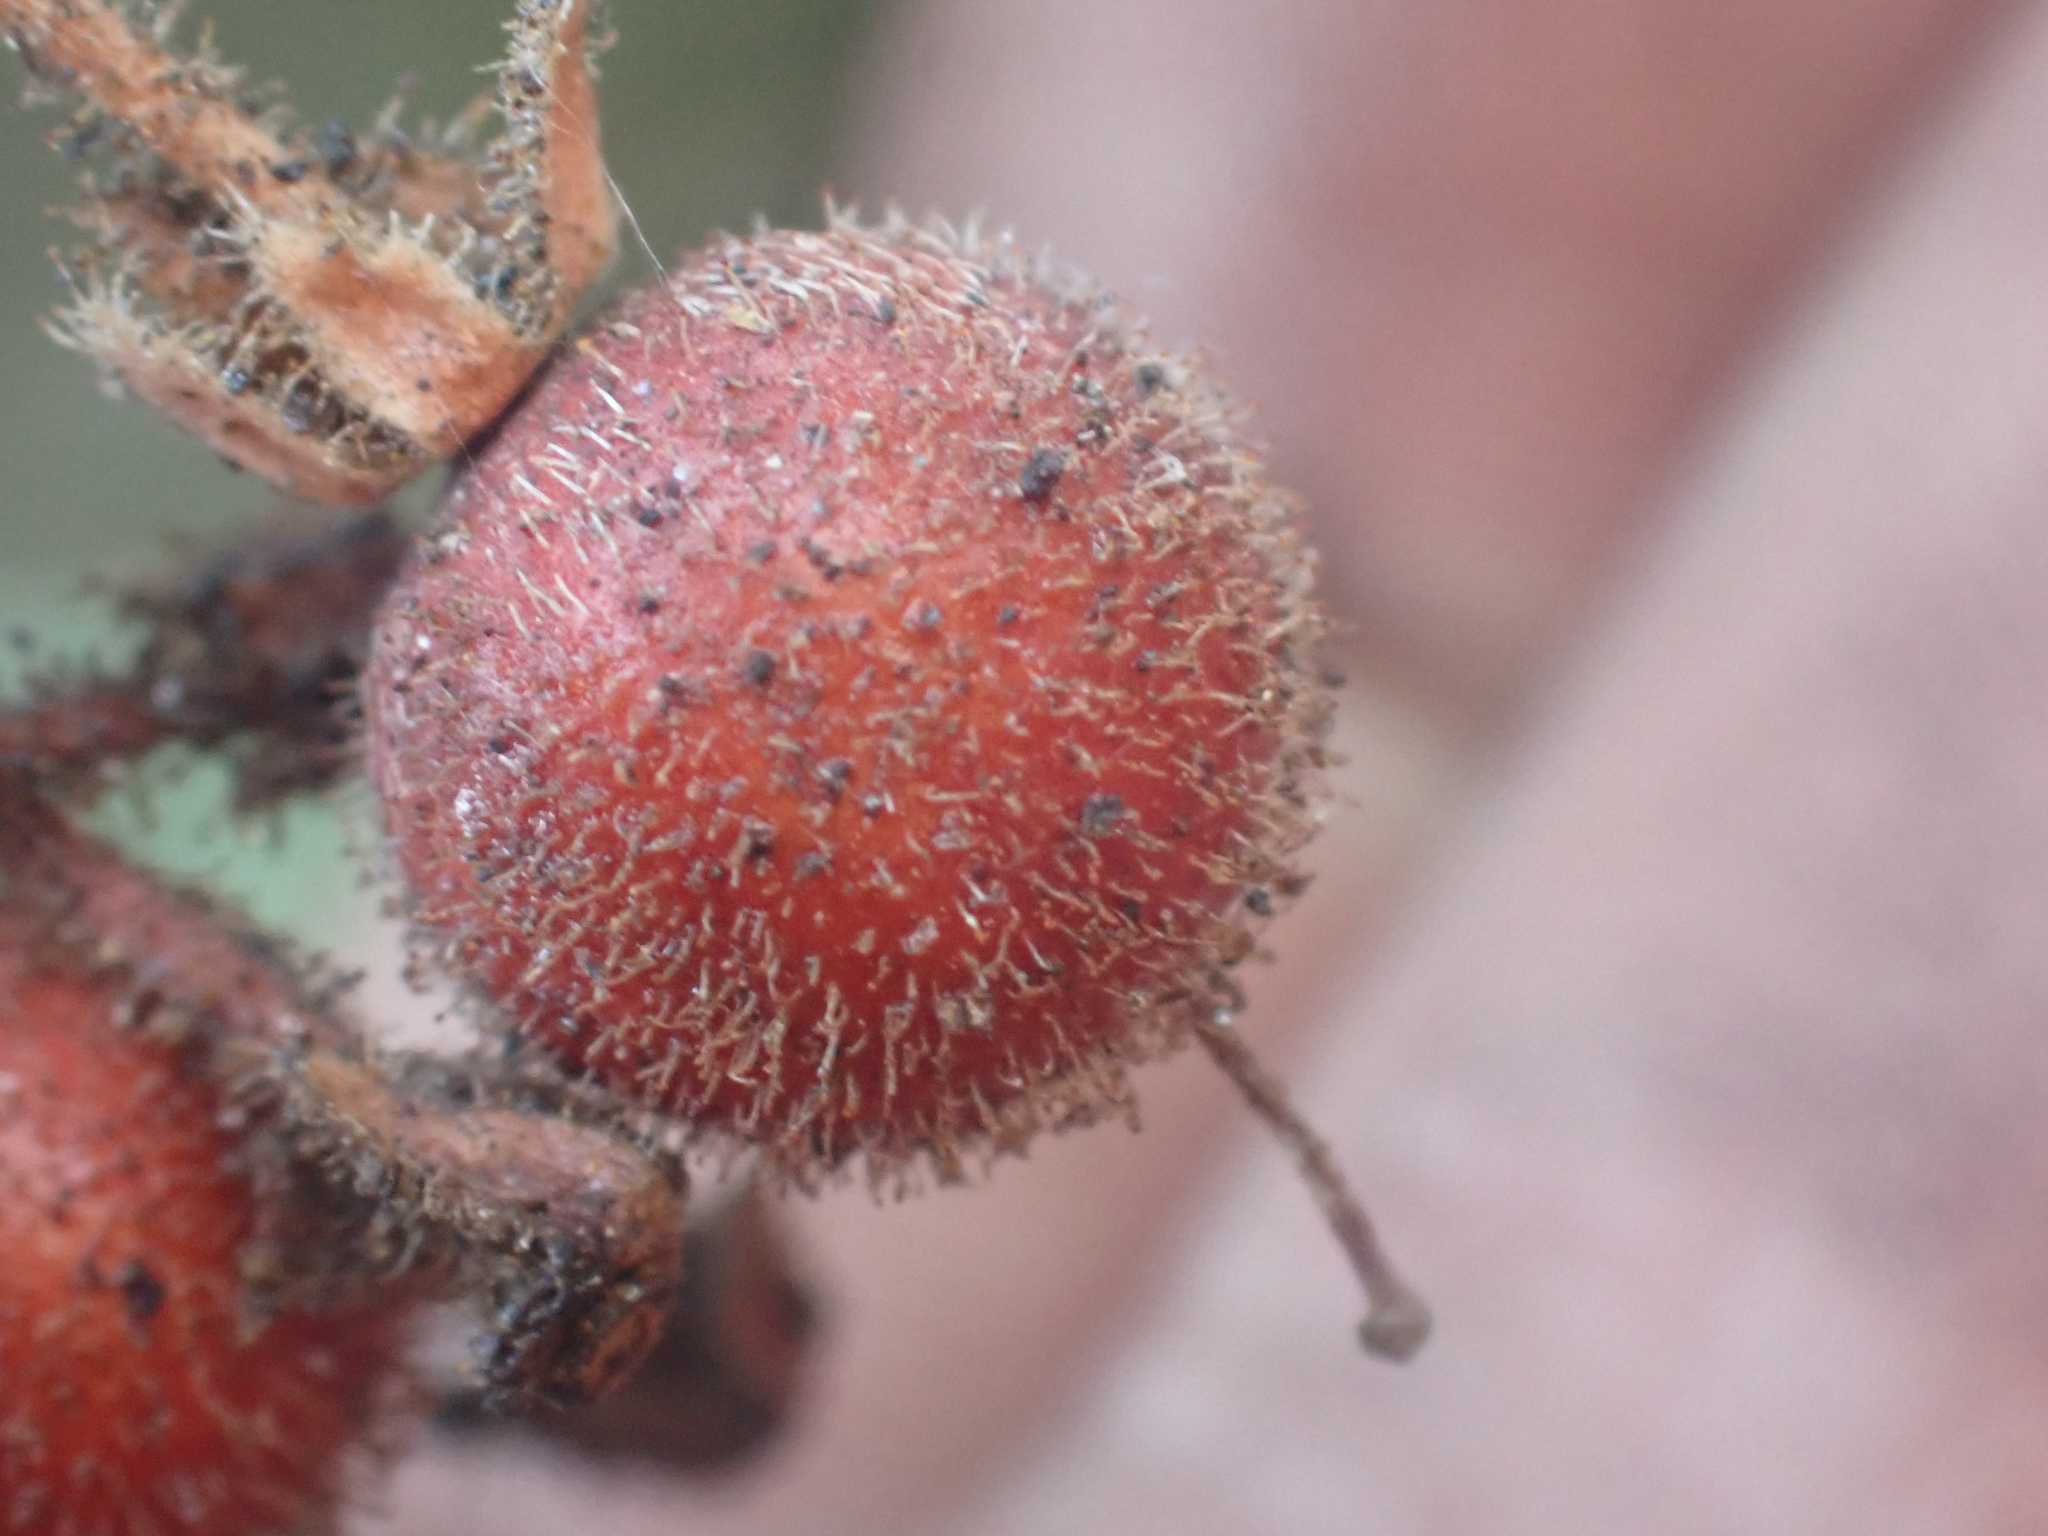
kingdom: Plantae
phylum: Tracheophyta
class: Magnoliopsida
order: Ericales
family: Ericaceae
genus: Arctostaphylos
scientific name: Arctostaphylos pringlei
